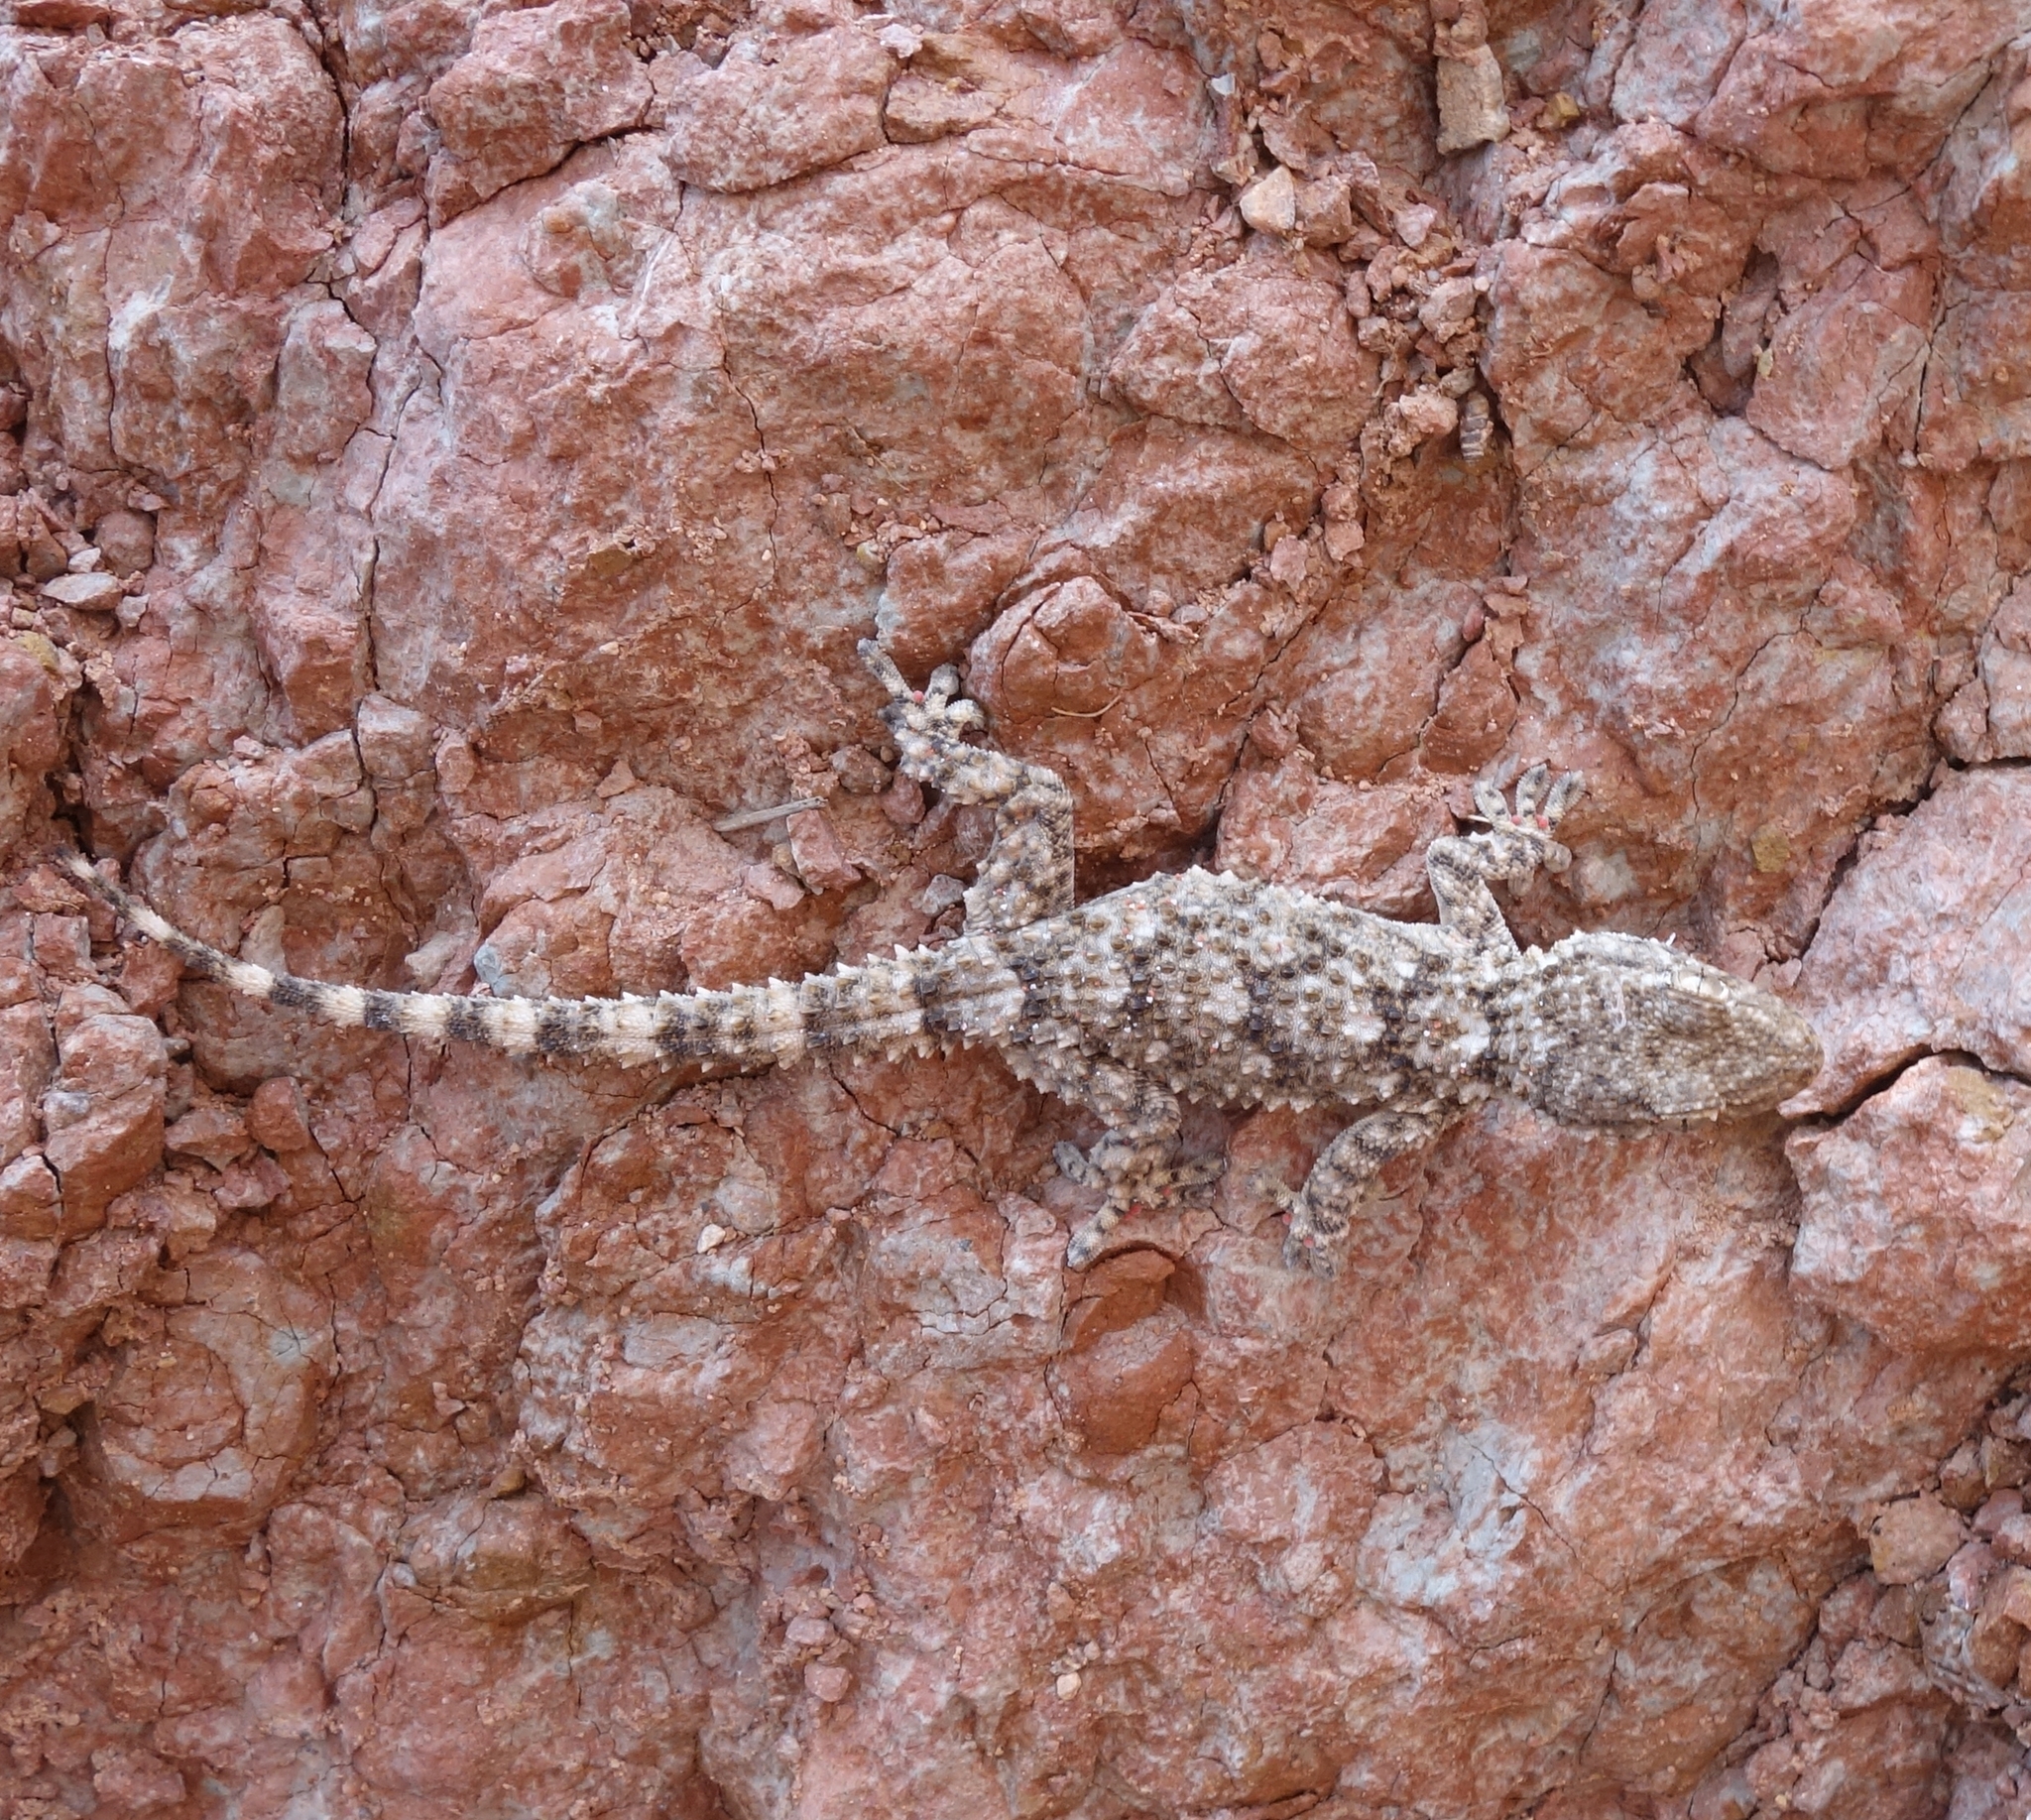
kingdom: Animalia
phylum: Chordata
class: Squamata
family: Phyllodactylidae
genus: Tarentola
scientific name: Tarentola mauritanica
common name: Moorish gecko
